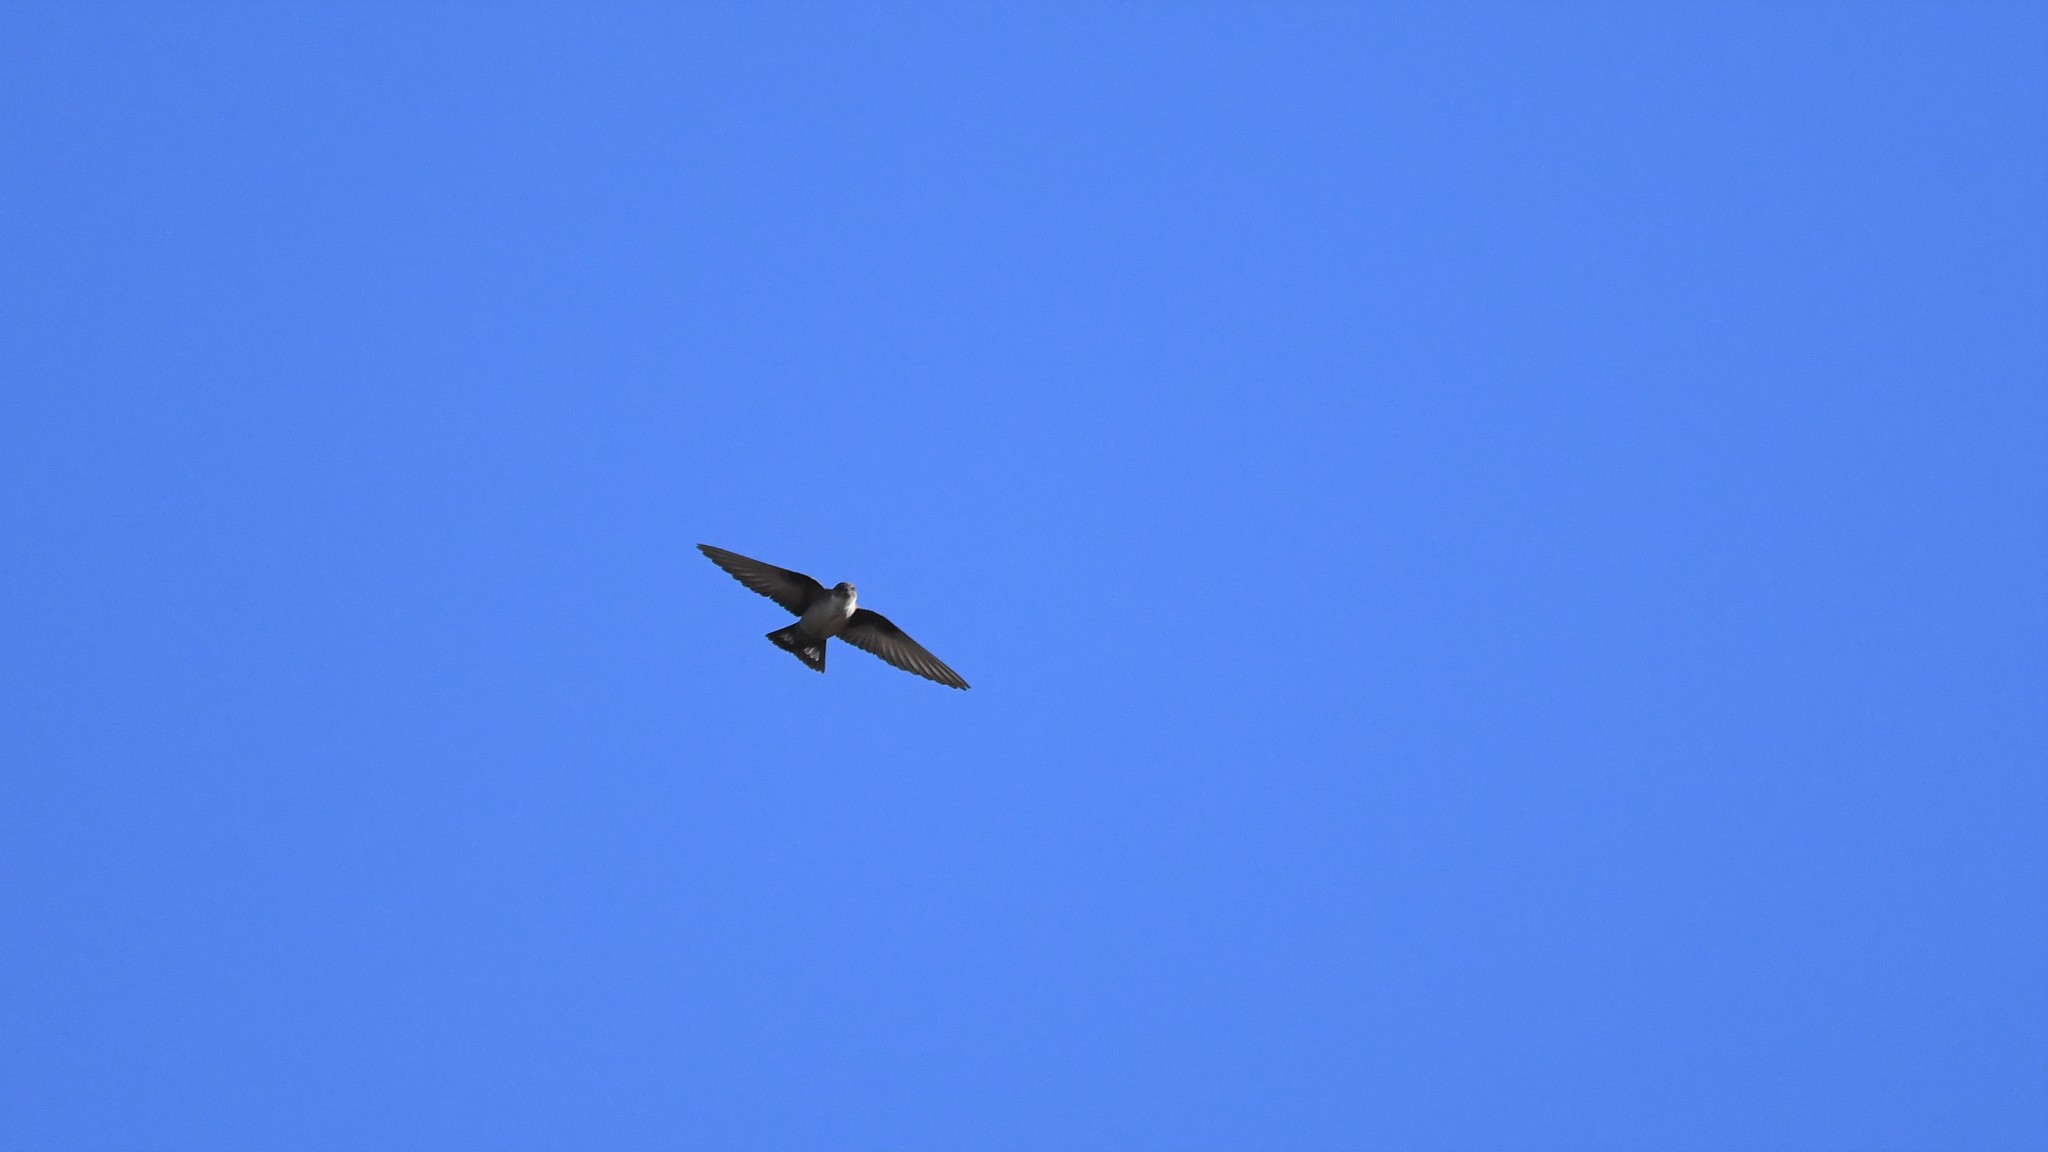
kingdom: Animalia
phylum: Chordata
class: Aves
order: Passeriformes
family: Hirundinidae
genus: Ptyonoprogne
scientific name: Ptyonoprogne rupestris
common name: Eurasian crag martin
